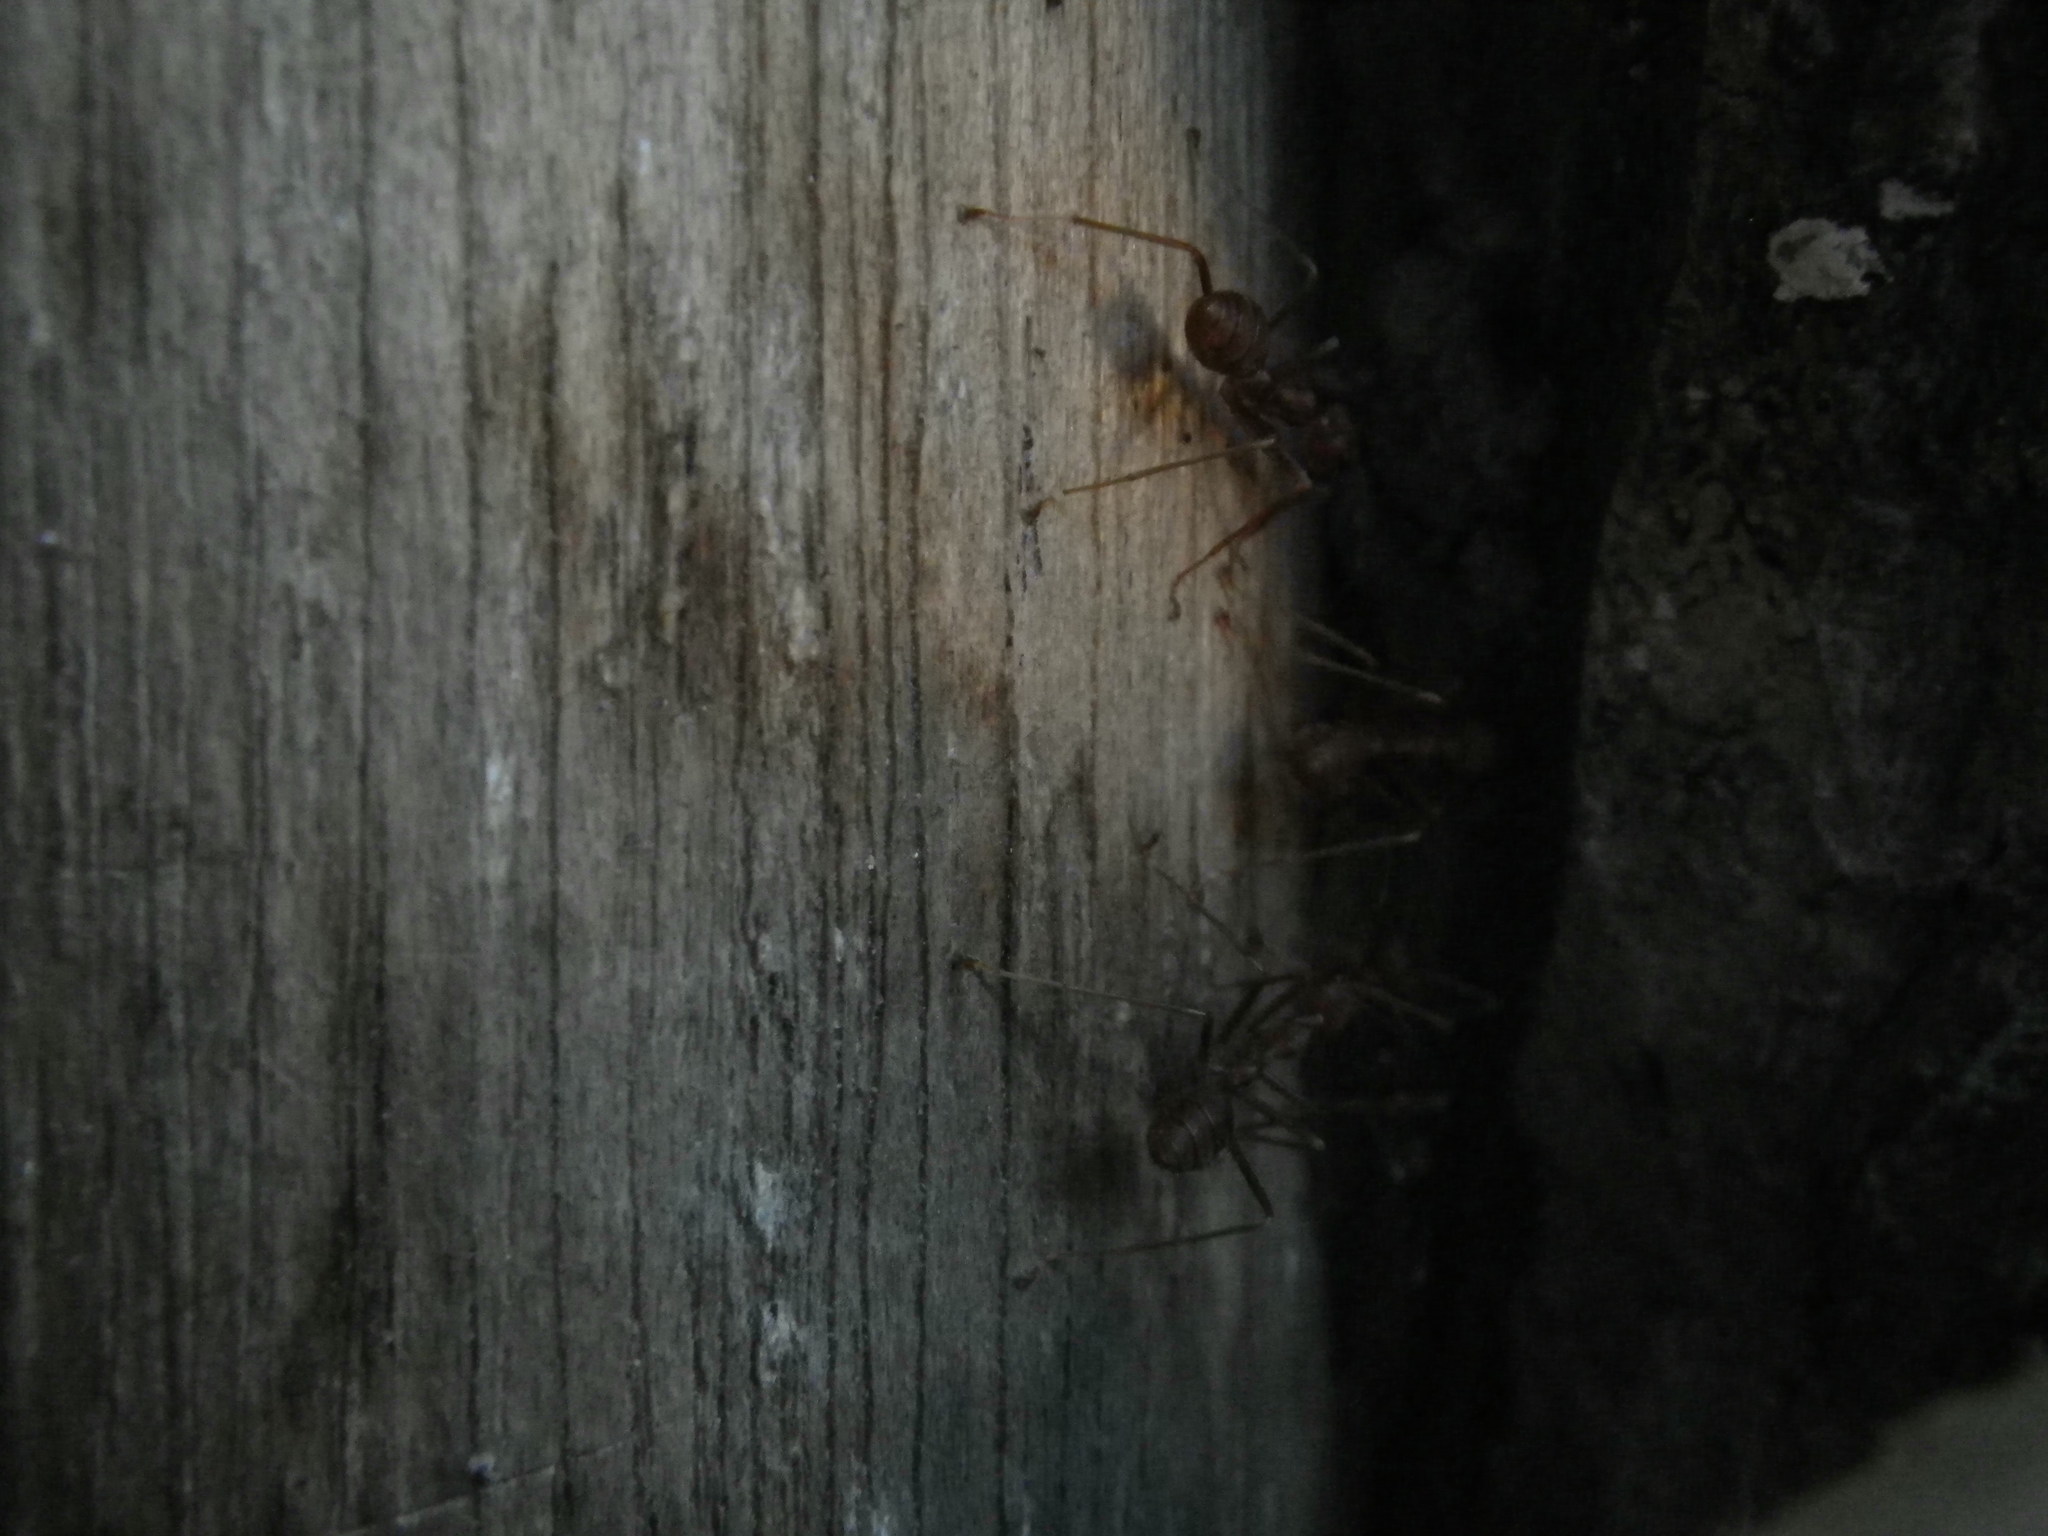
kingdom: Animalia
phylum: Arthropoda
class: Insecta
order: Hymenoptera
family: Formicidae
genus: Oecophylla
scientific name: Oecophylla smaragdina
